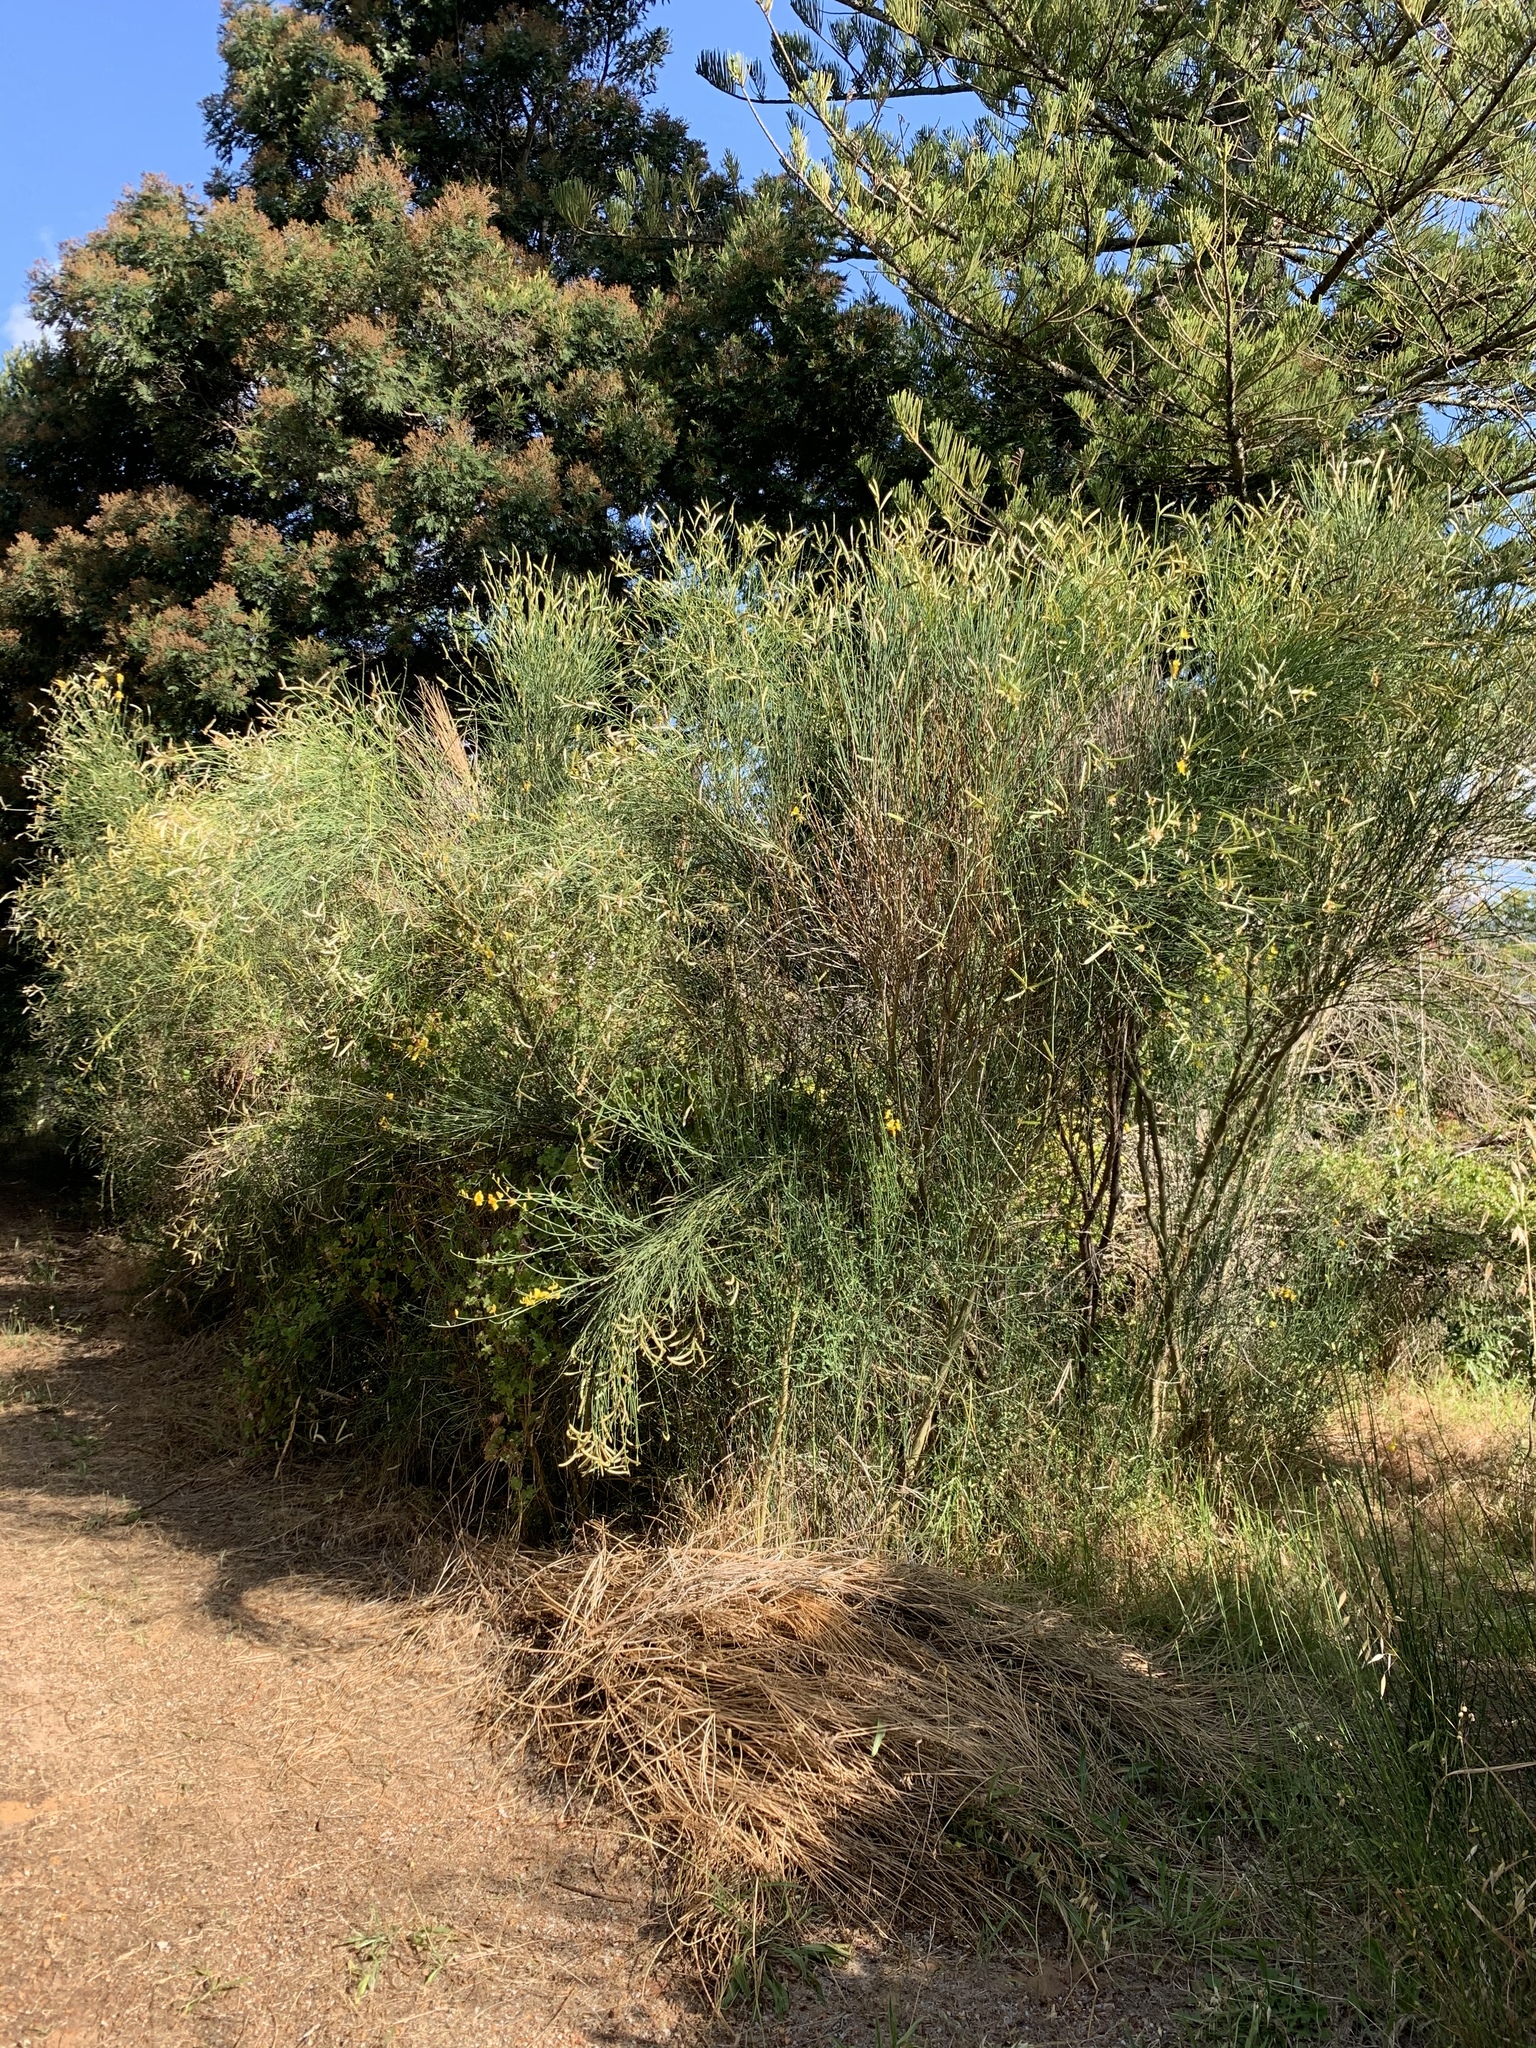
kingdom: Plantae
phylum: Tracheophyta
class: Magnoliopsida
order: Fabales
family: Fabaceae
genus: Spartium
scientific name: Spartium junceum
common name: Spanish broom
